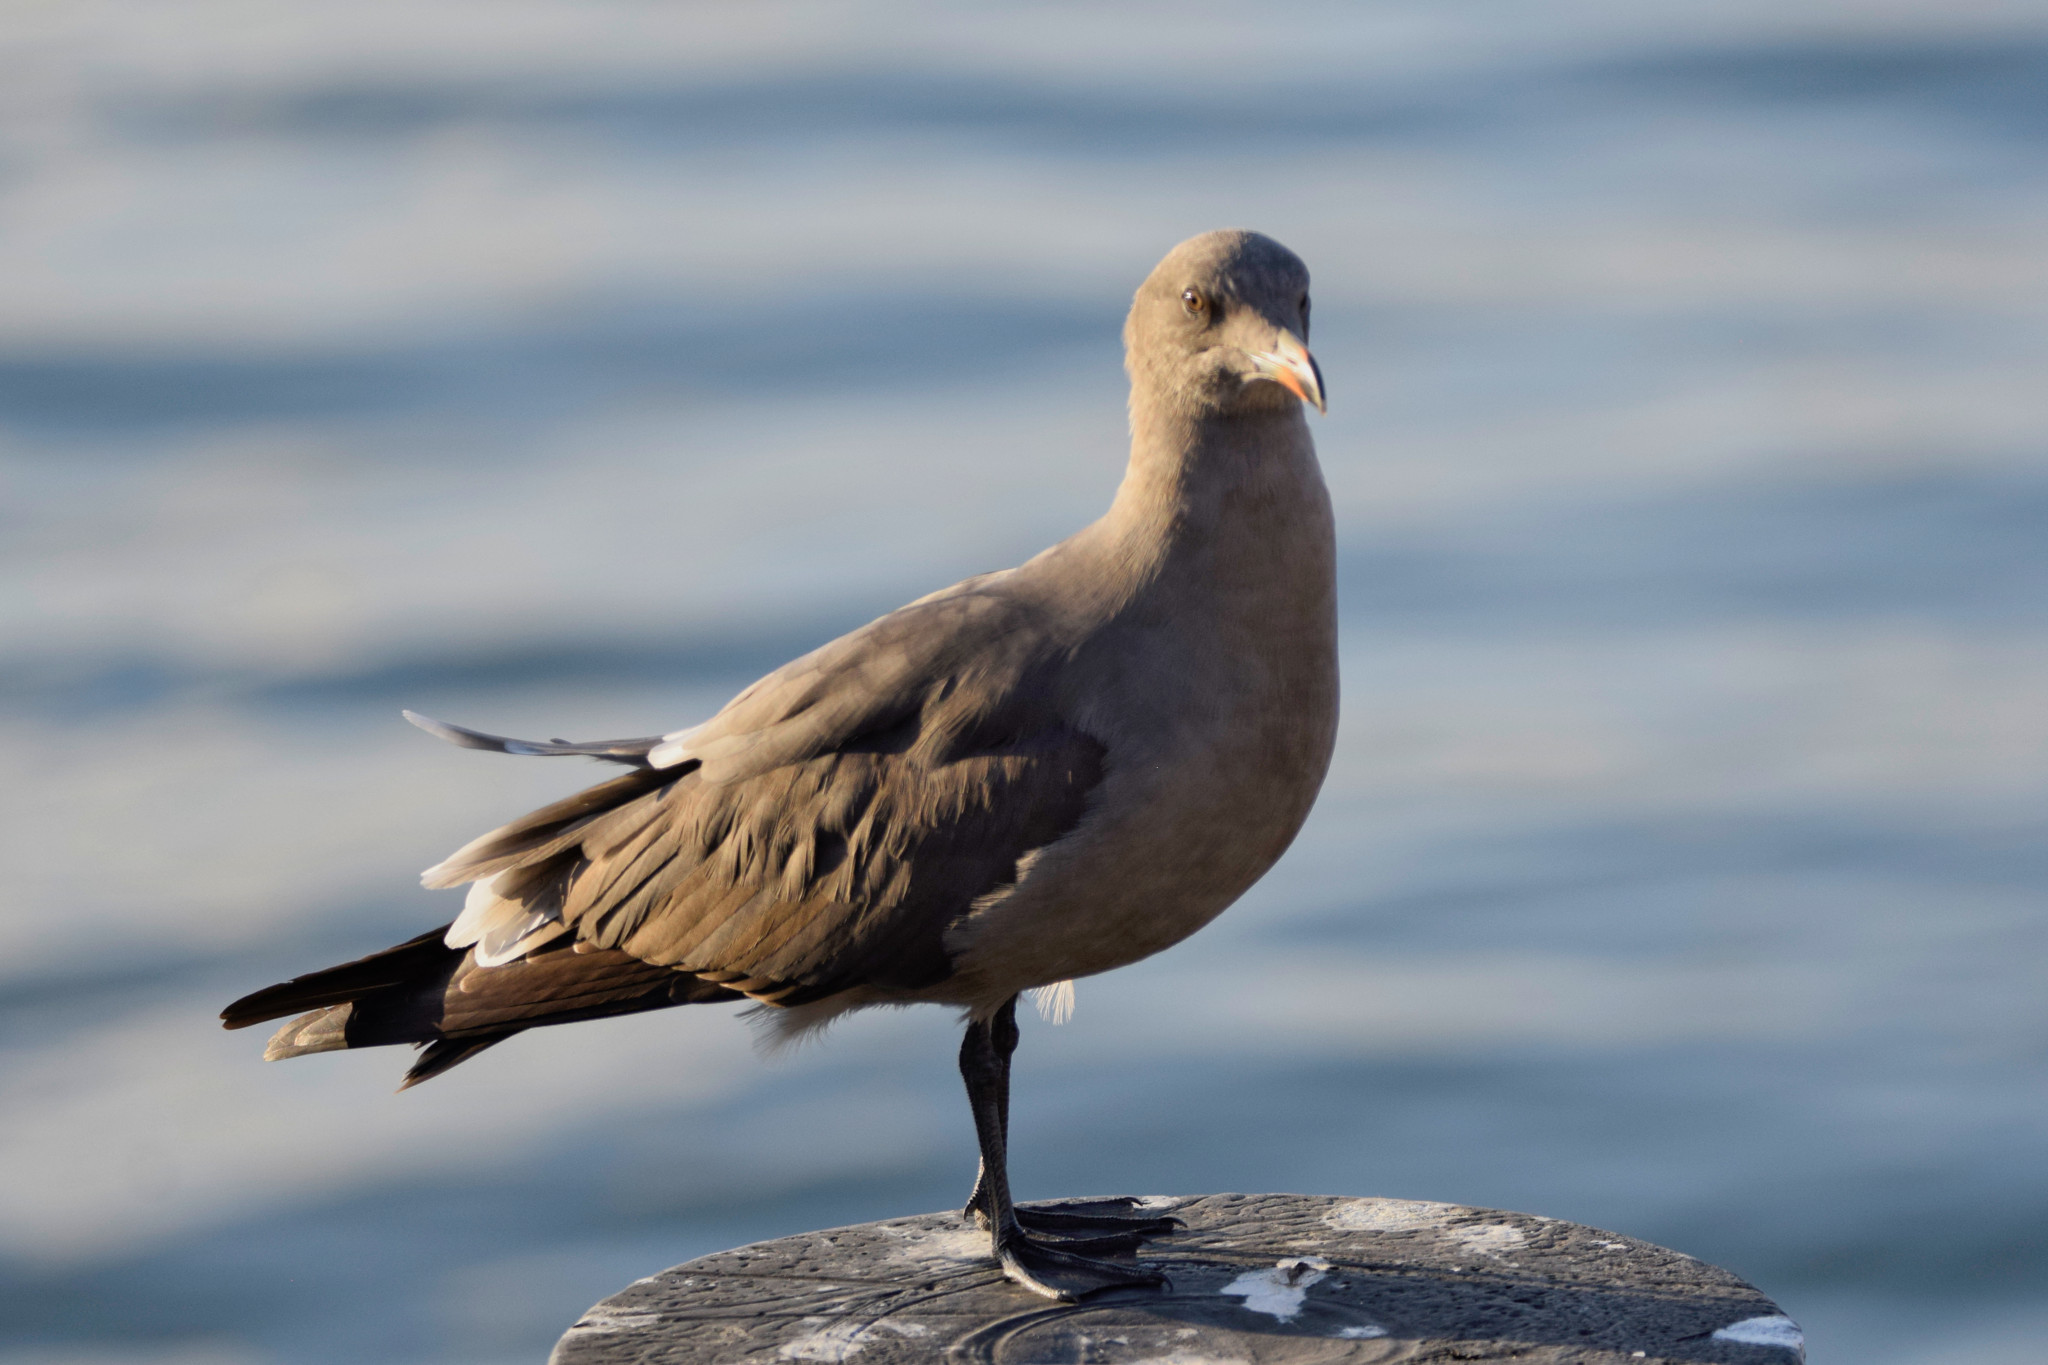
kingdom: Animalia
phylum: Chordata
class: Aves
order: Charadriiformes
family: Laridae
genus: Larus
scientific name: Larus heermanni
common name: Heermann's gull
